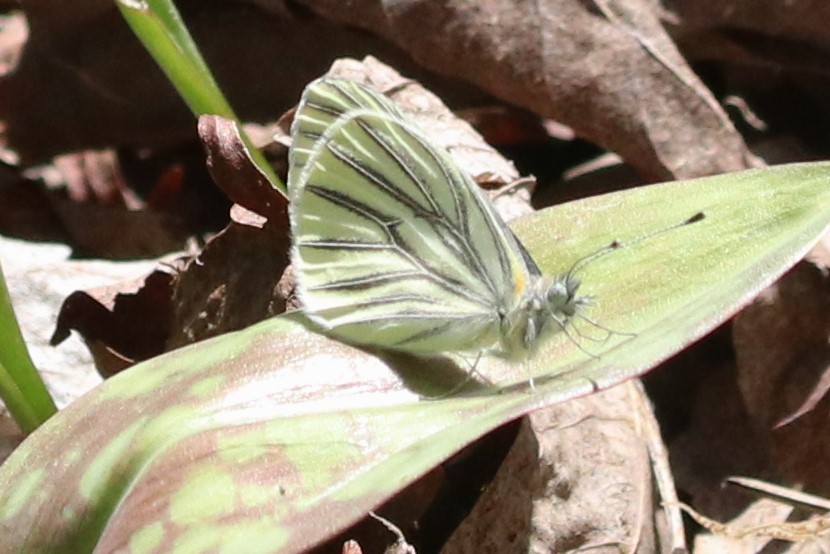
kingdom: Animalia
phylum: Arthropoda
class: Insecta
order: Lepidoptera
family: Pieridae
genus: Pieris
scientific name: Pieris oleracea
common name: Mustard white
